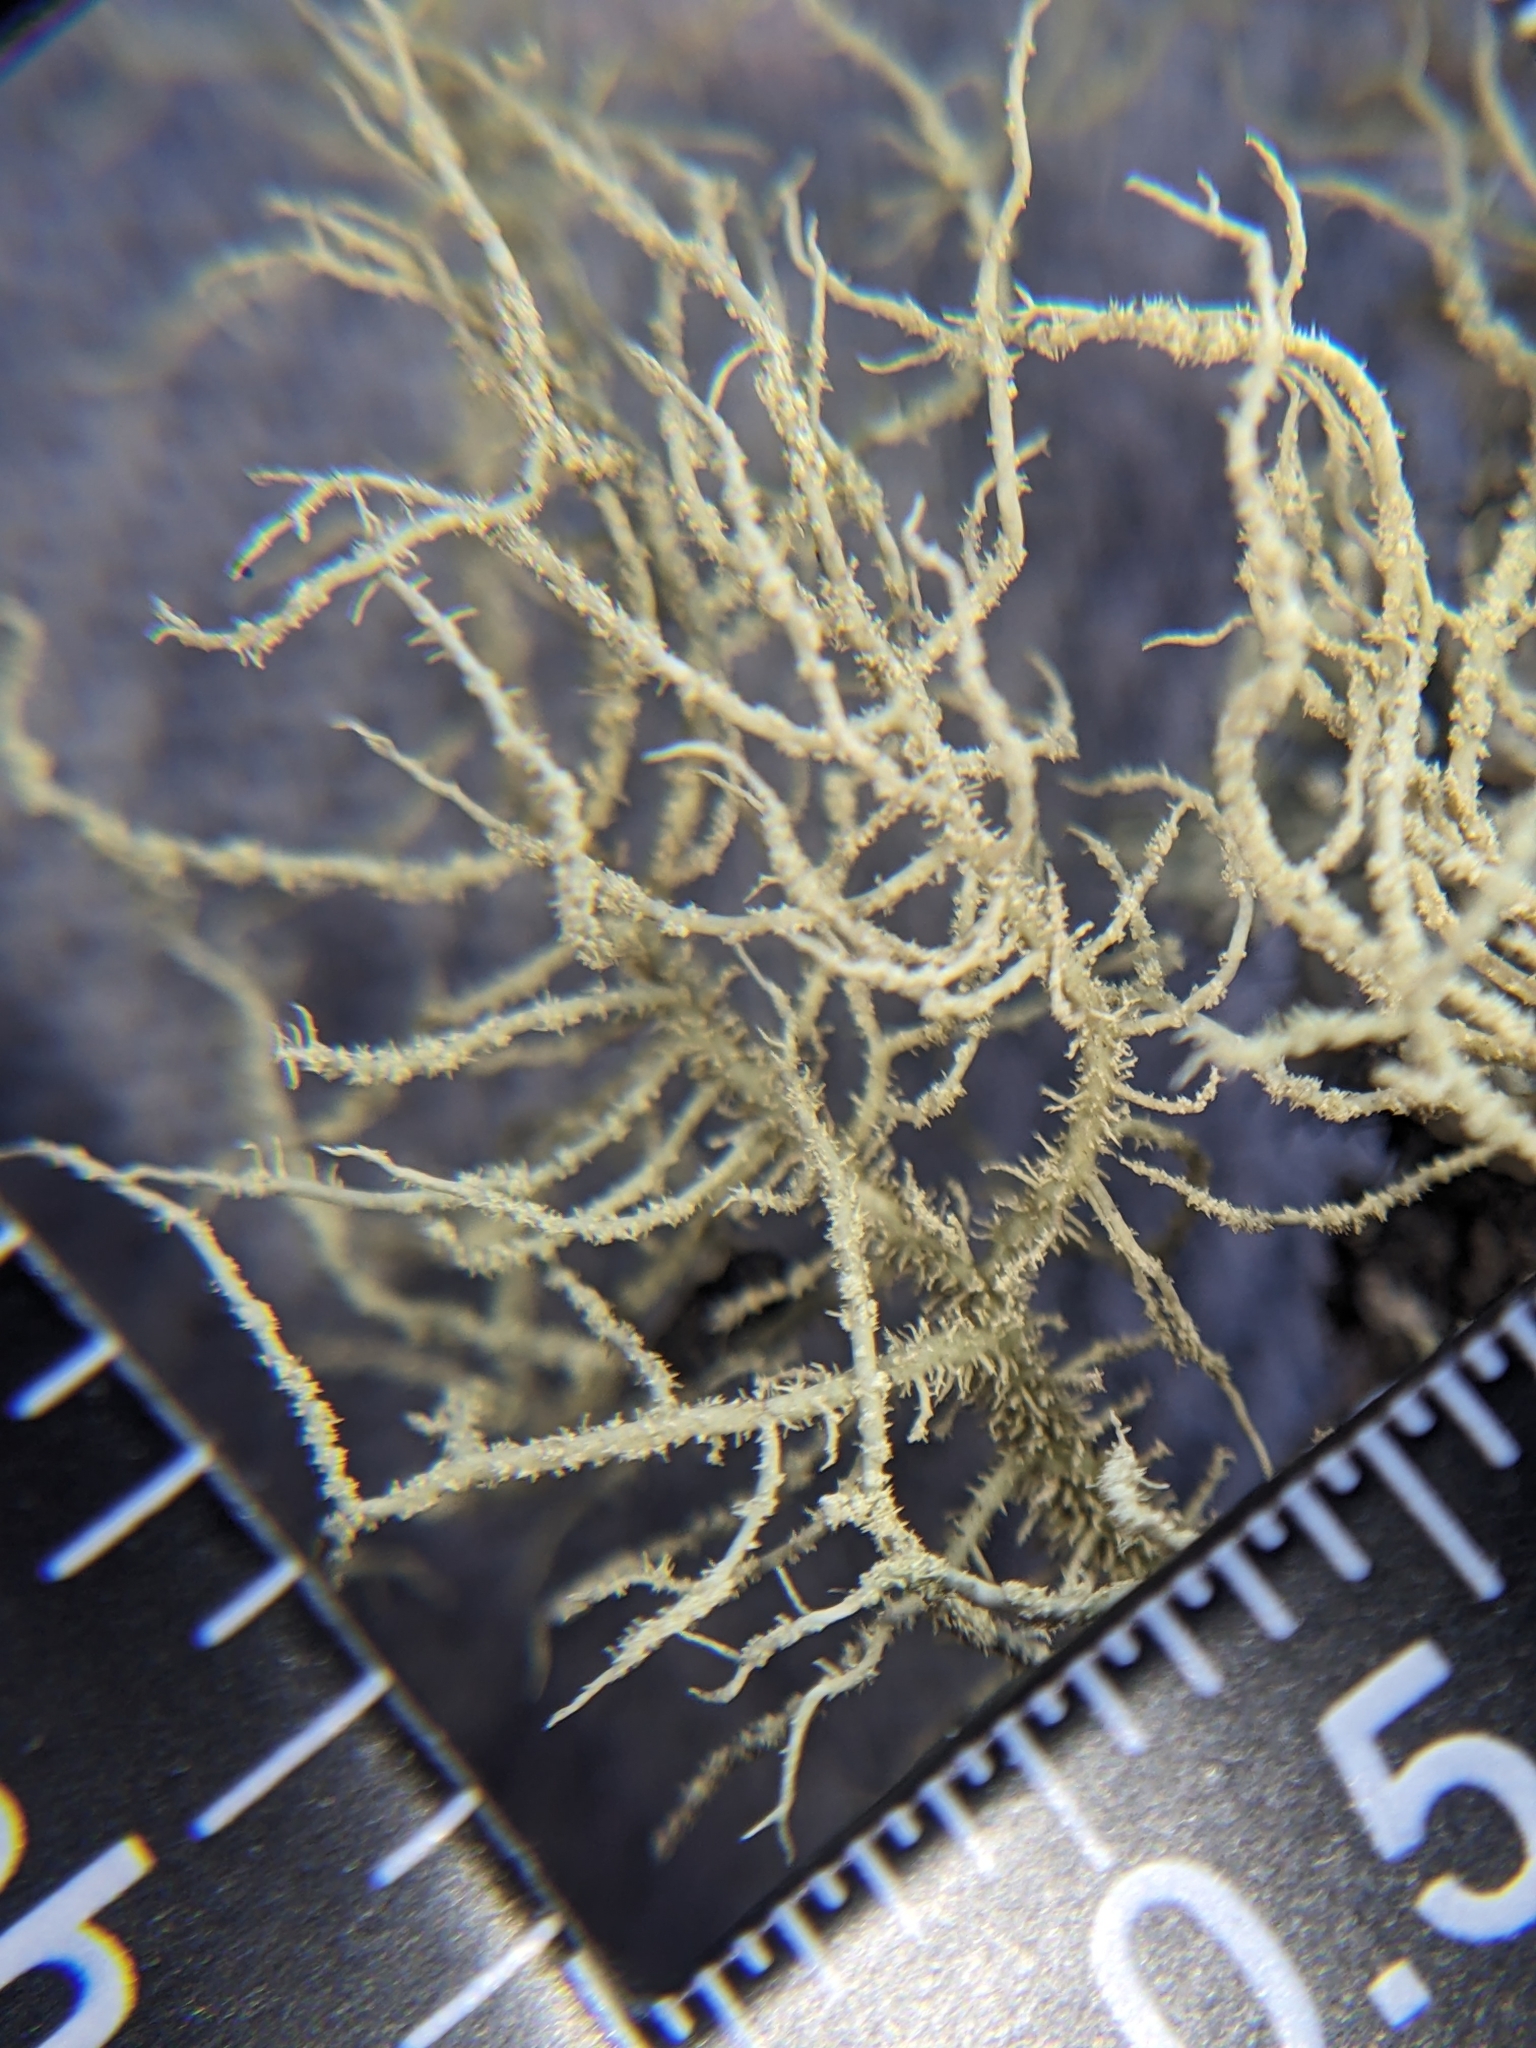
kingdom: Fungi
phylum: Ascomycota
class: Lecanoromycetes
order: Lecanorales
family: Parmeliaceae
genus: Usnea
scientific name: Usnea glabrata
